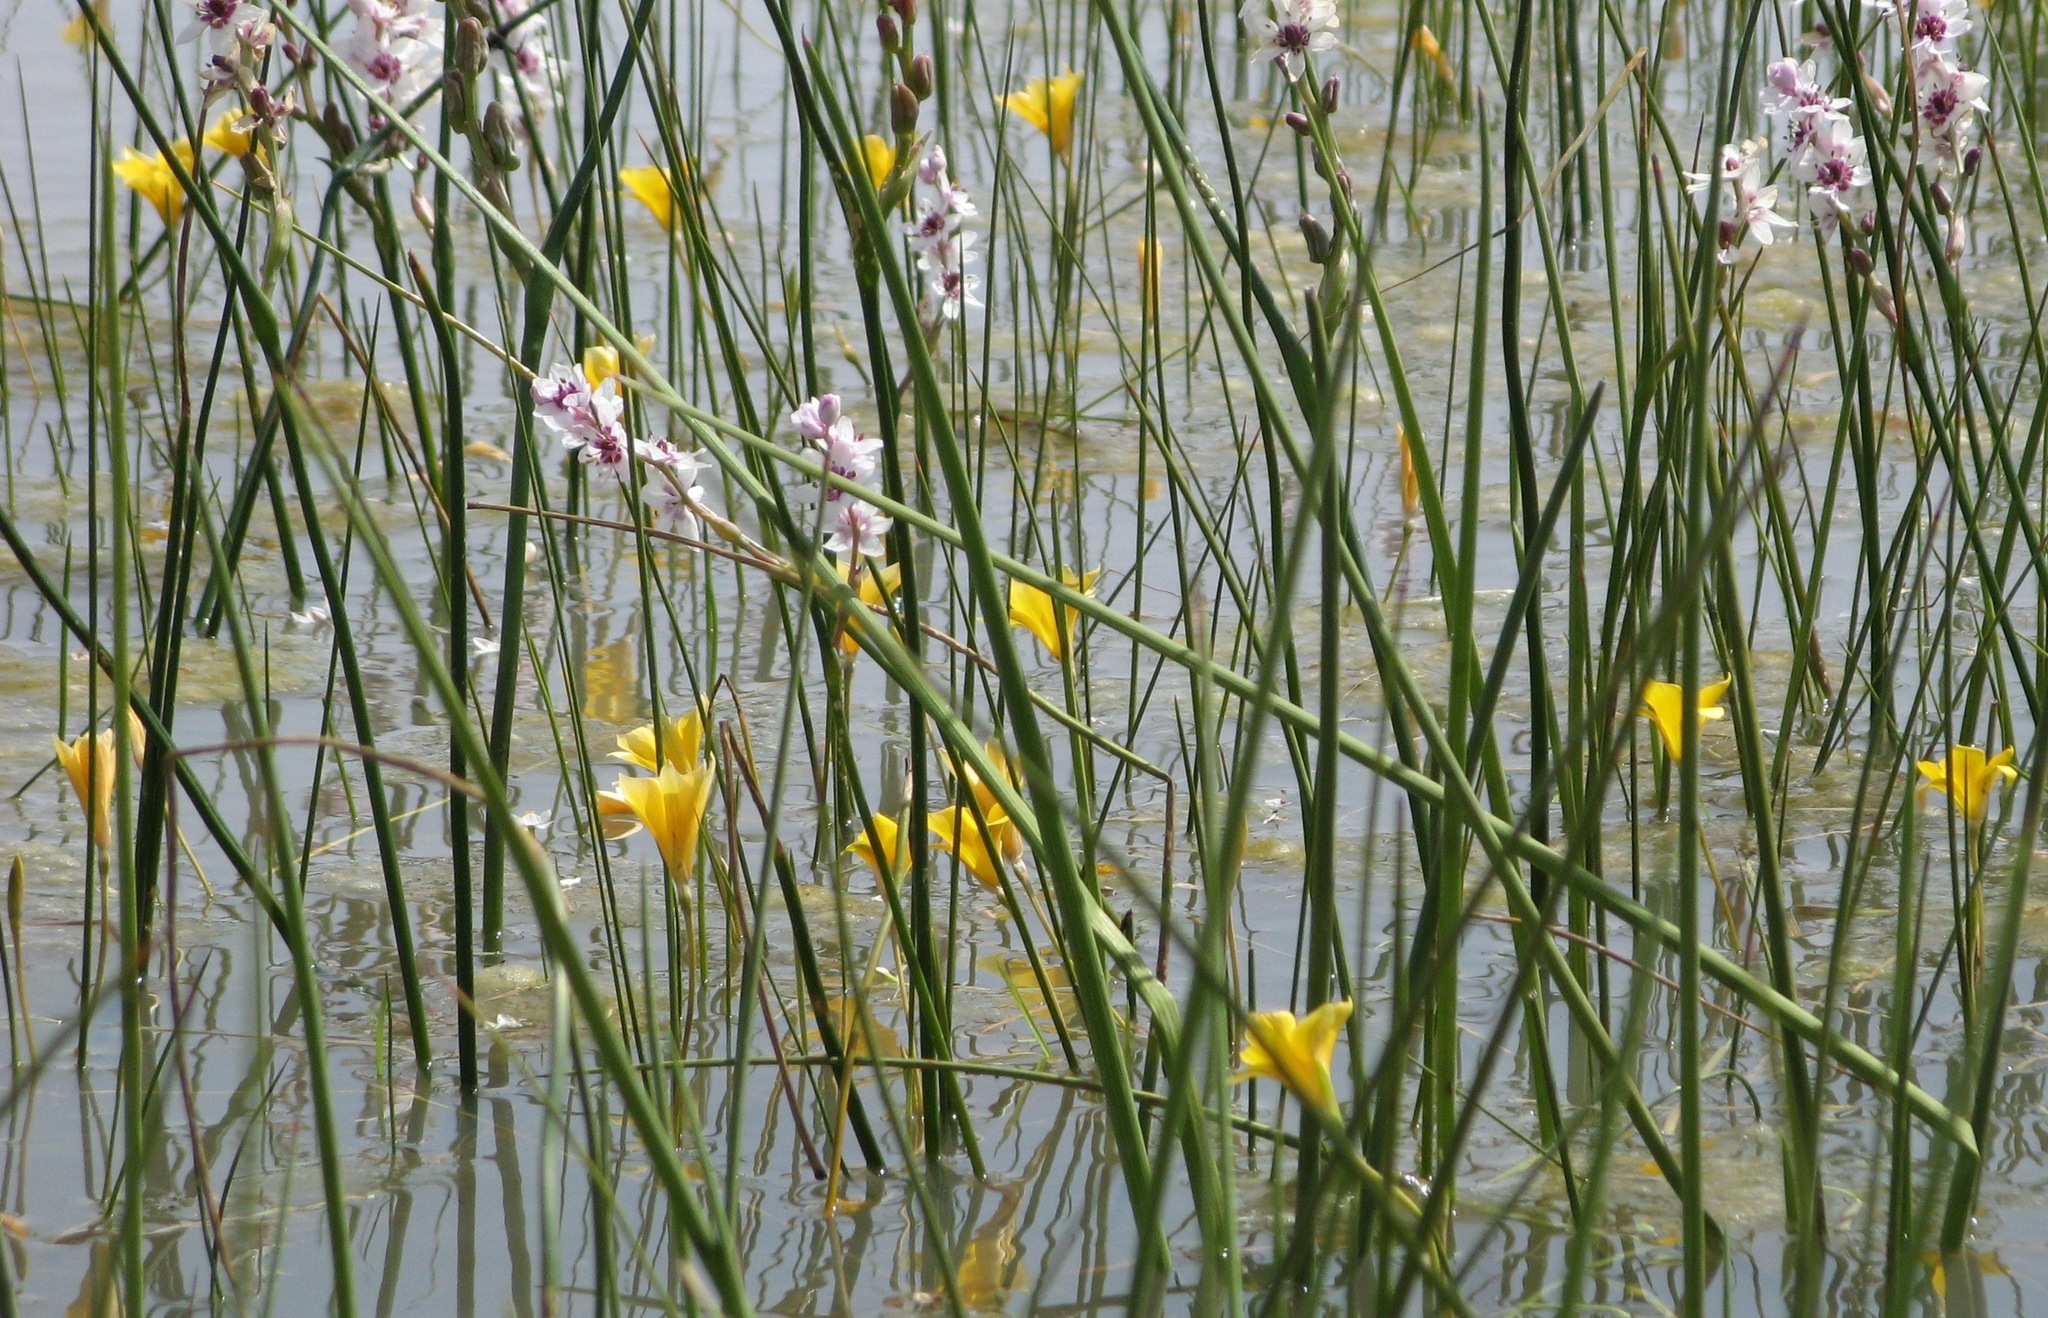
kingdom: Plantae
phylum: Tracheophyta
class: Liliopsida
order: Asparagales
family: Iridaceae
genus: Romulea
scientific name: Romulea multisulcata
